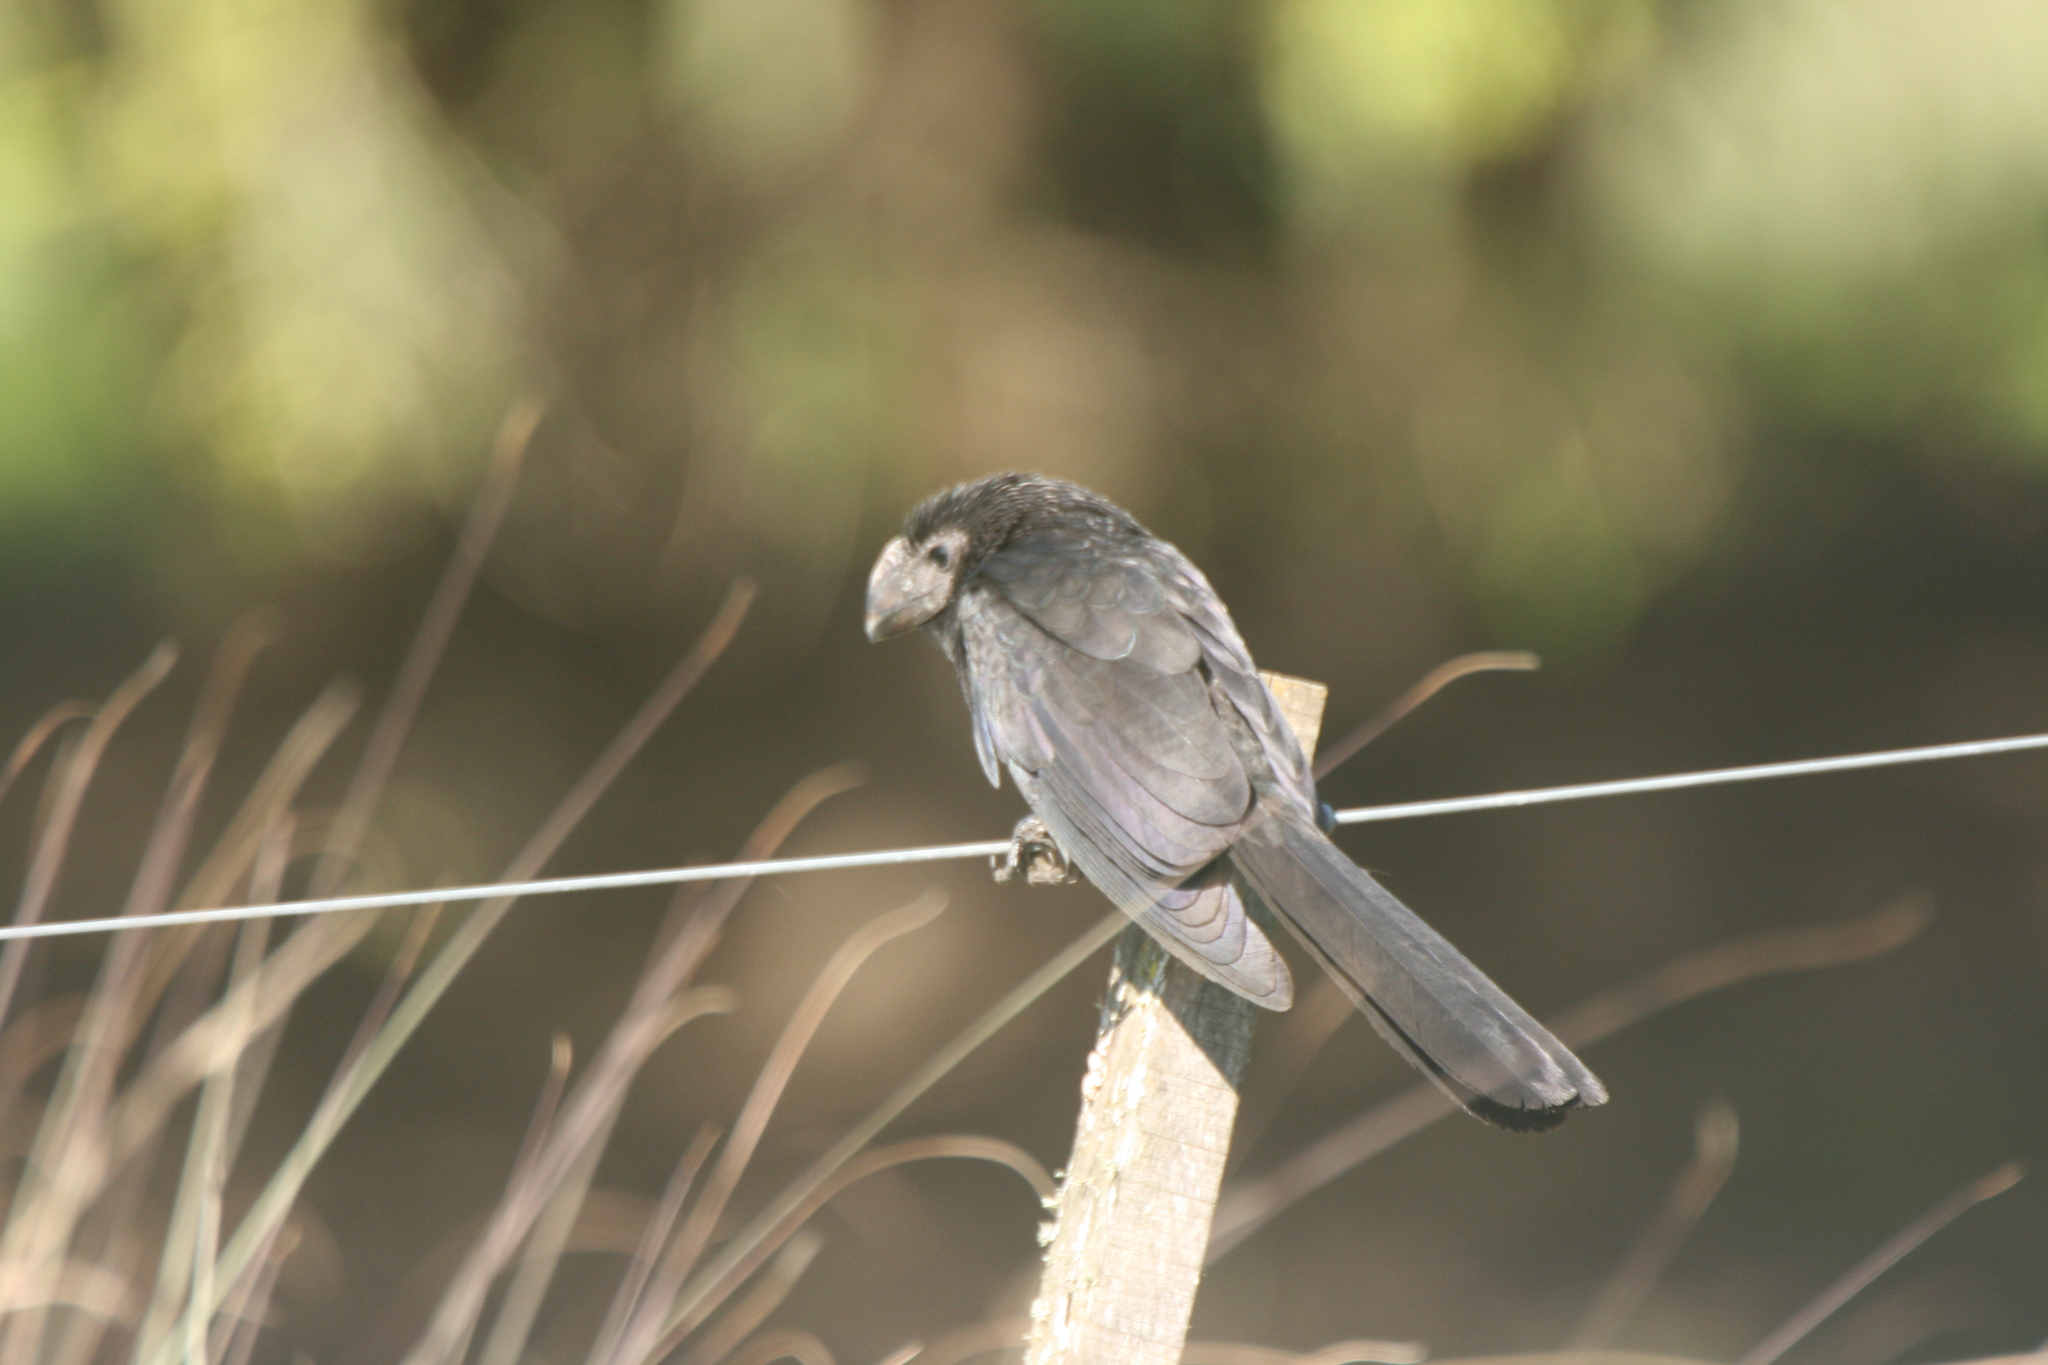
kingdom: Animalia
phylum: Chordata
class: Aves
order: Cuculiformes
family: Cuculidae
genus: Crotophaga
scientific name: Crotophaga ani
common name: Smooth-billed ani
